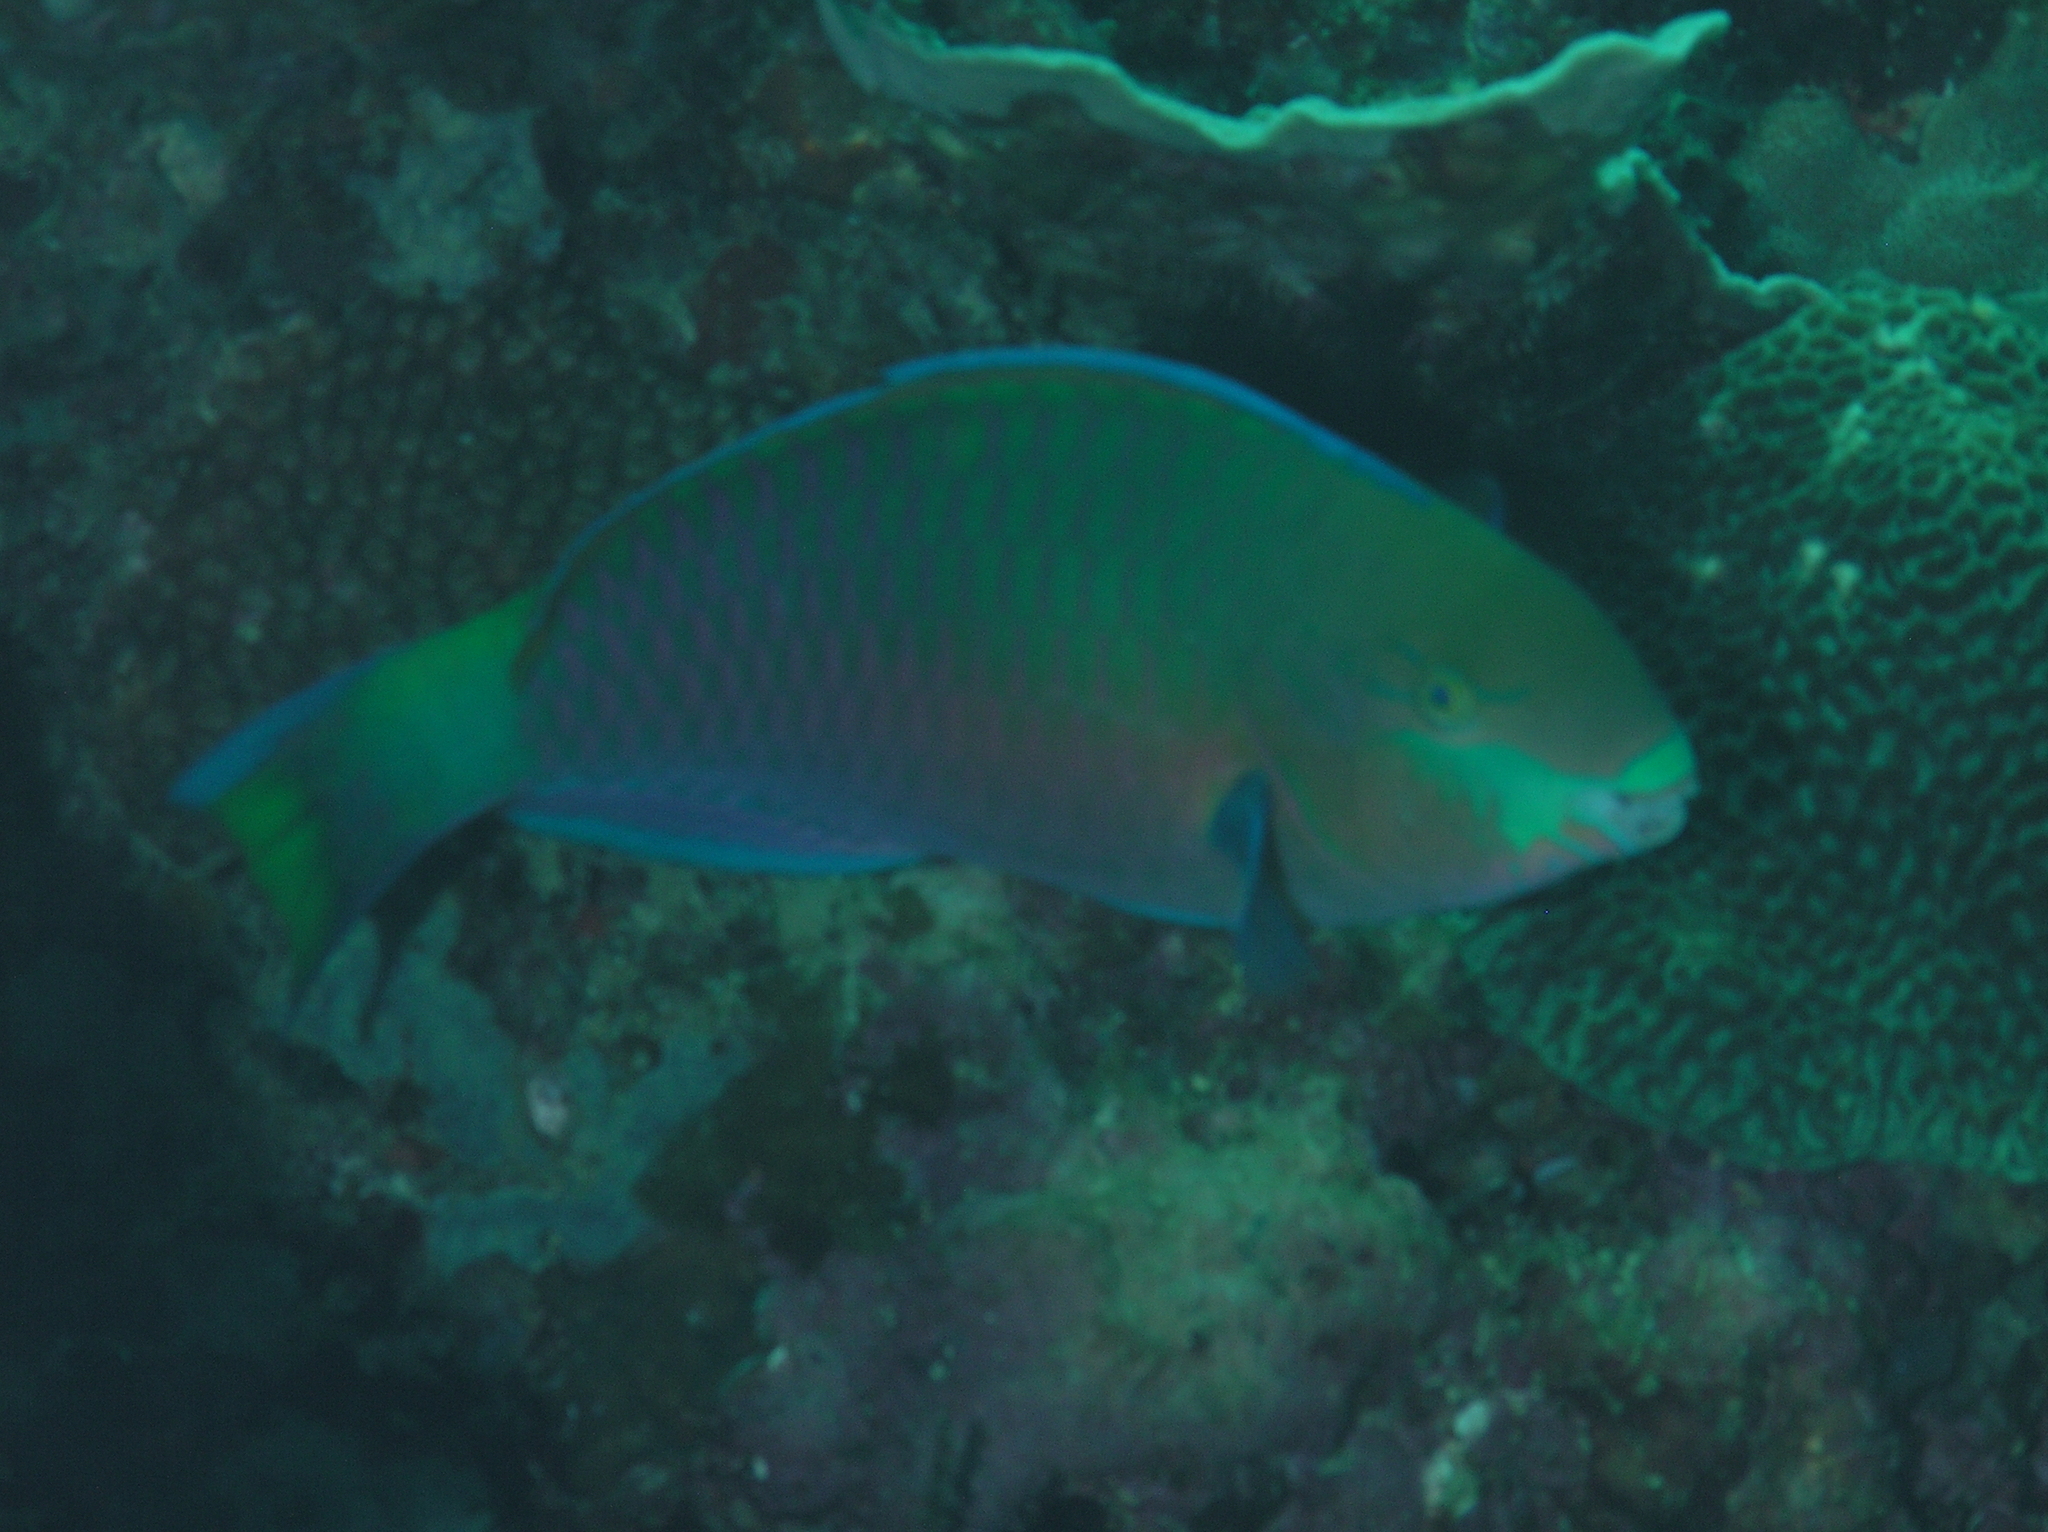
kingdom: Animalia
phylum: Chordata
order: Perciformes
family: Scaridae
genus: Scarus
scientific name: Scarus quoyi
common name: Quoy's parrotfish
